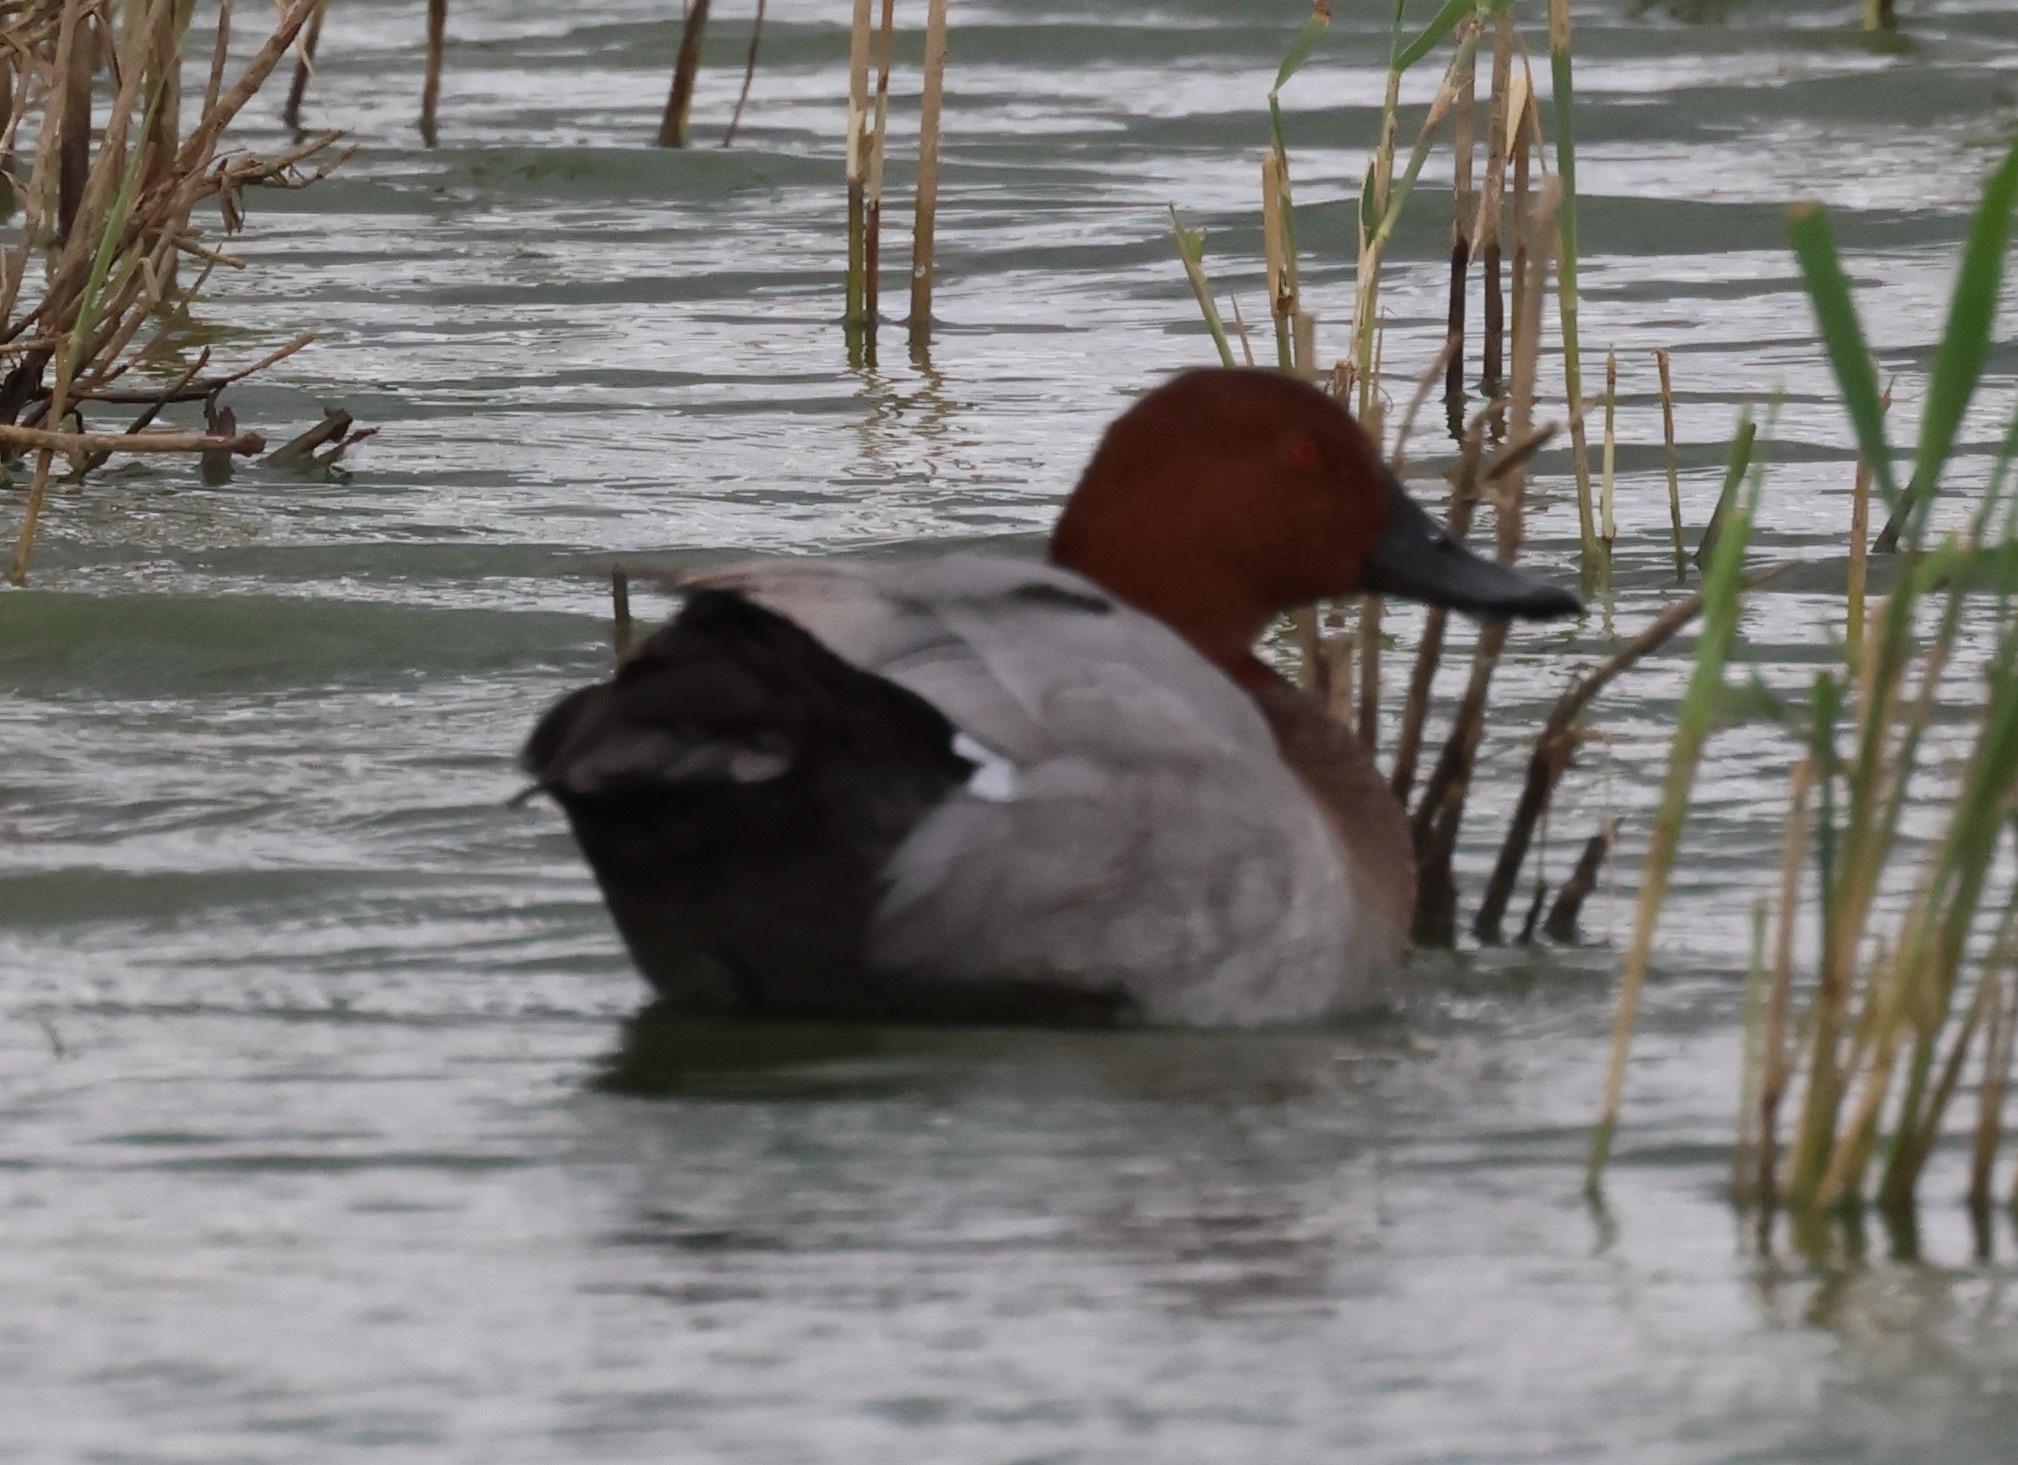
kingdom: Animalia
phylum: Chordata
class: Aves
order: Anseriformes
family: Anatidae
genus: Aythya
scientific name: Aythya ferina
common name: Common pochard
